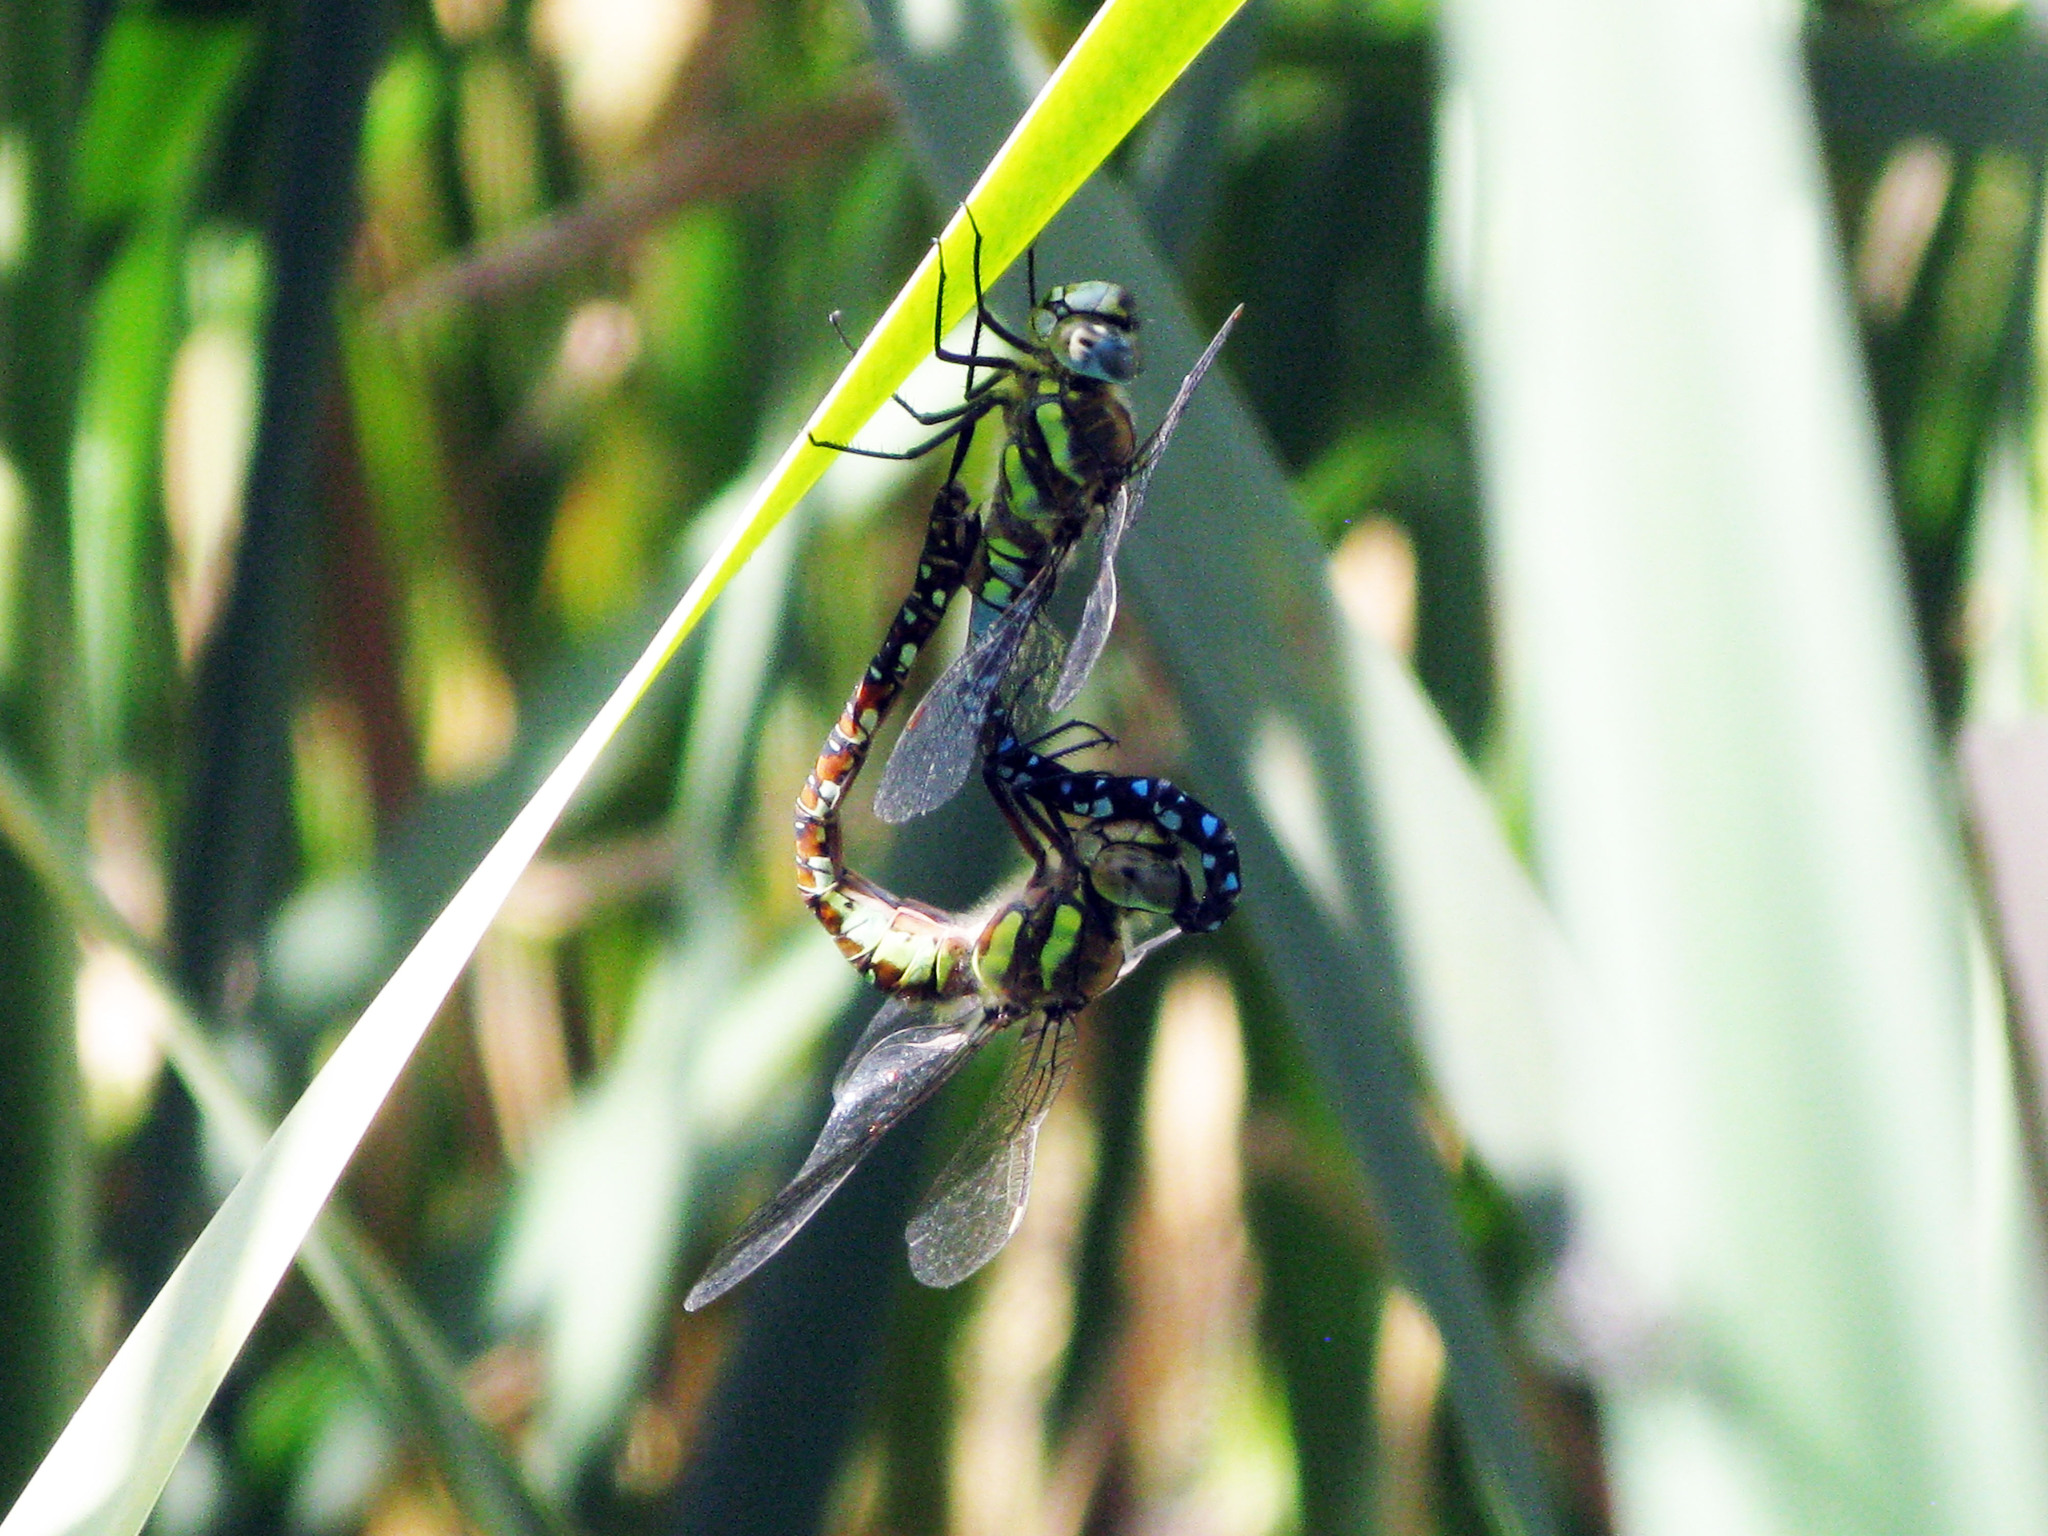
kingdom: Animalia
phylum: Arthropoda
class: Insecta
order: Odonata
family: Aeshnidae
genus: Aeshna
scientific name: Aeshna mixta
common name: Migrant hawker
